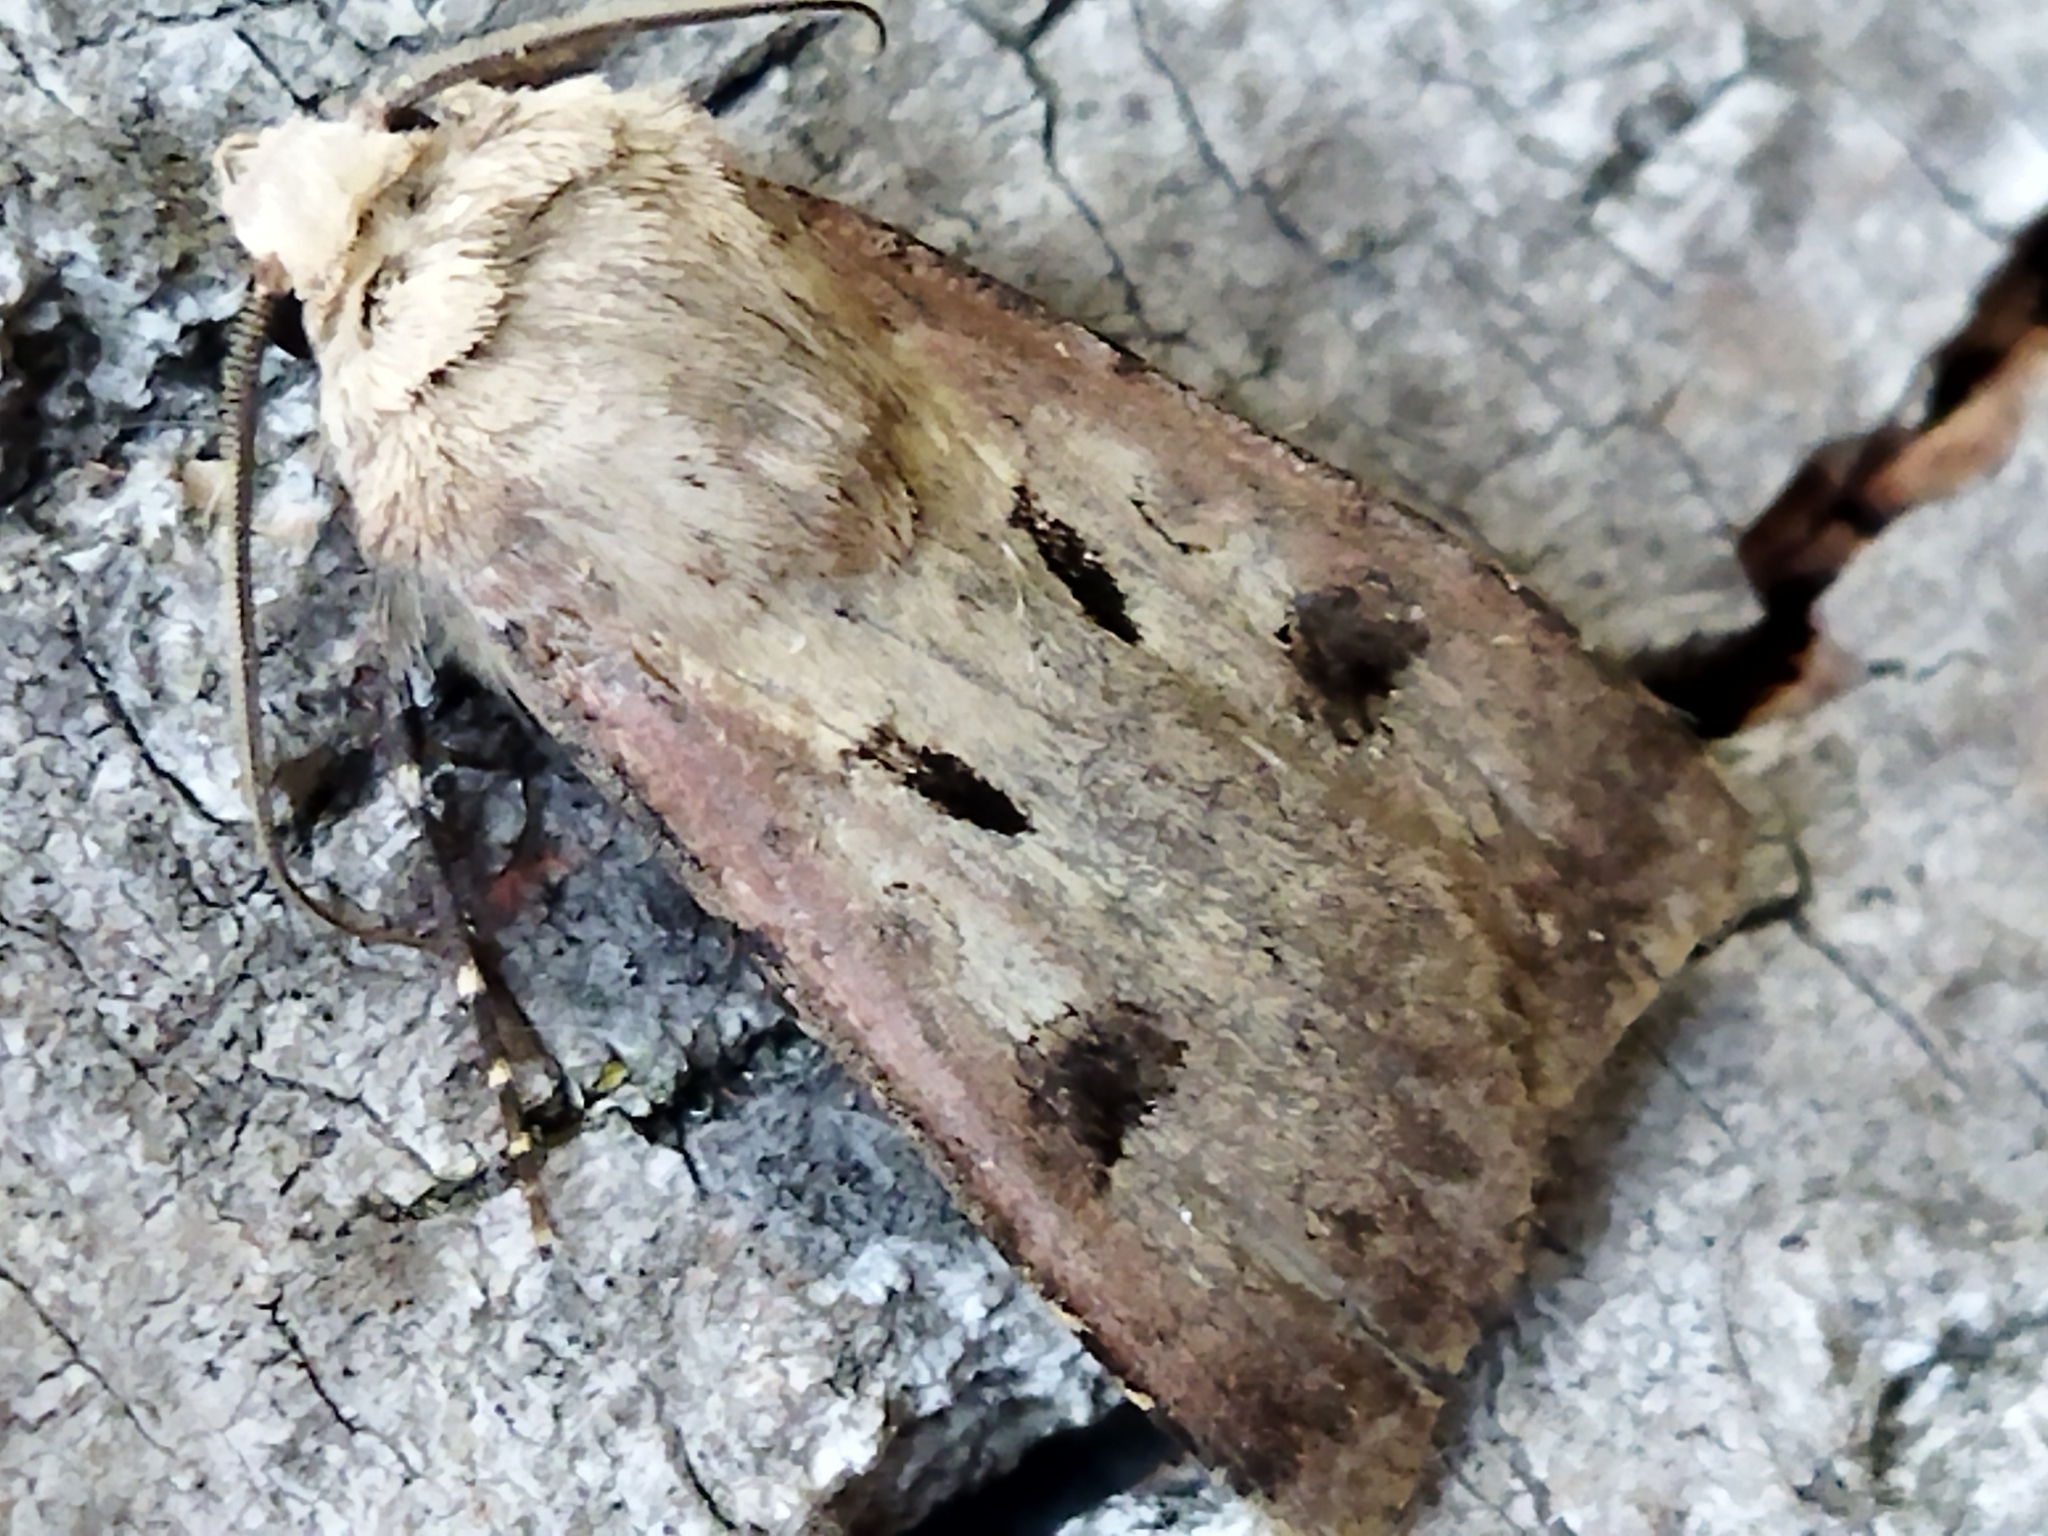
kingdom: Animalia
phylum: Arthropoda
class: Insecta
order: Lepidoptera
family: Noctuidae
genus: Agrotis
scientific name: Agrotis exclamationis
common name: Heart and dart
